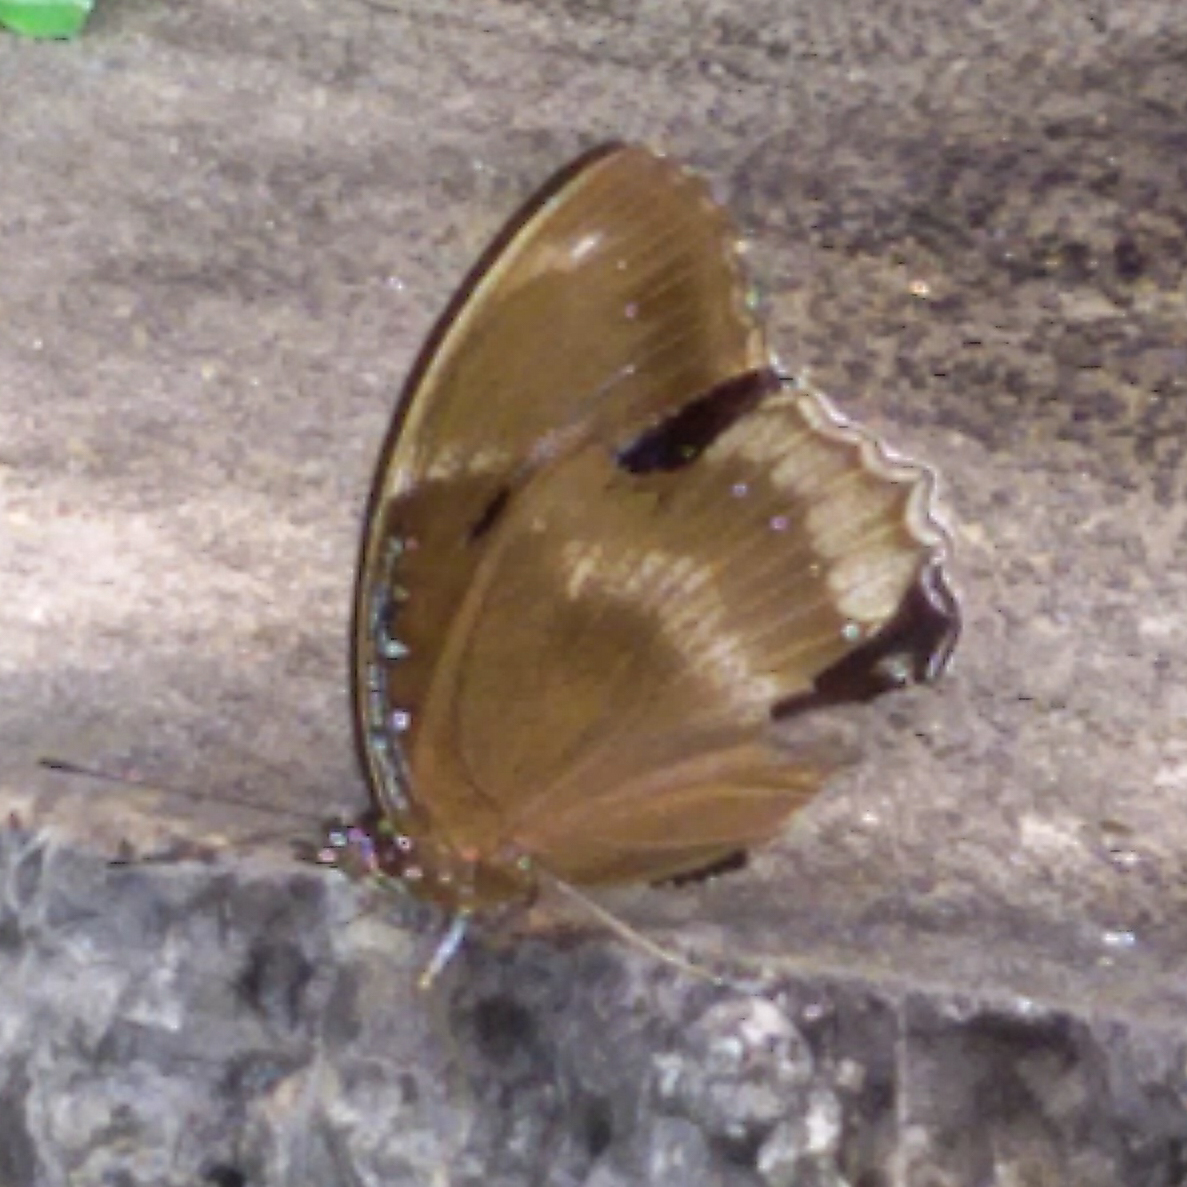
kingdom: Animalia
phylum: Arthropoda
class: Insecta
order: Lepidoptera
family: Nymphalidae
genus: Hypolimnas
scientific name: Hypolimnas bolina
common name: Great eggfly
